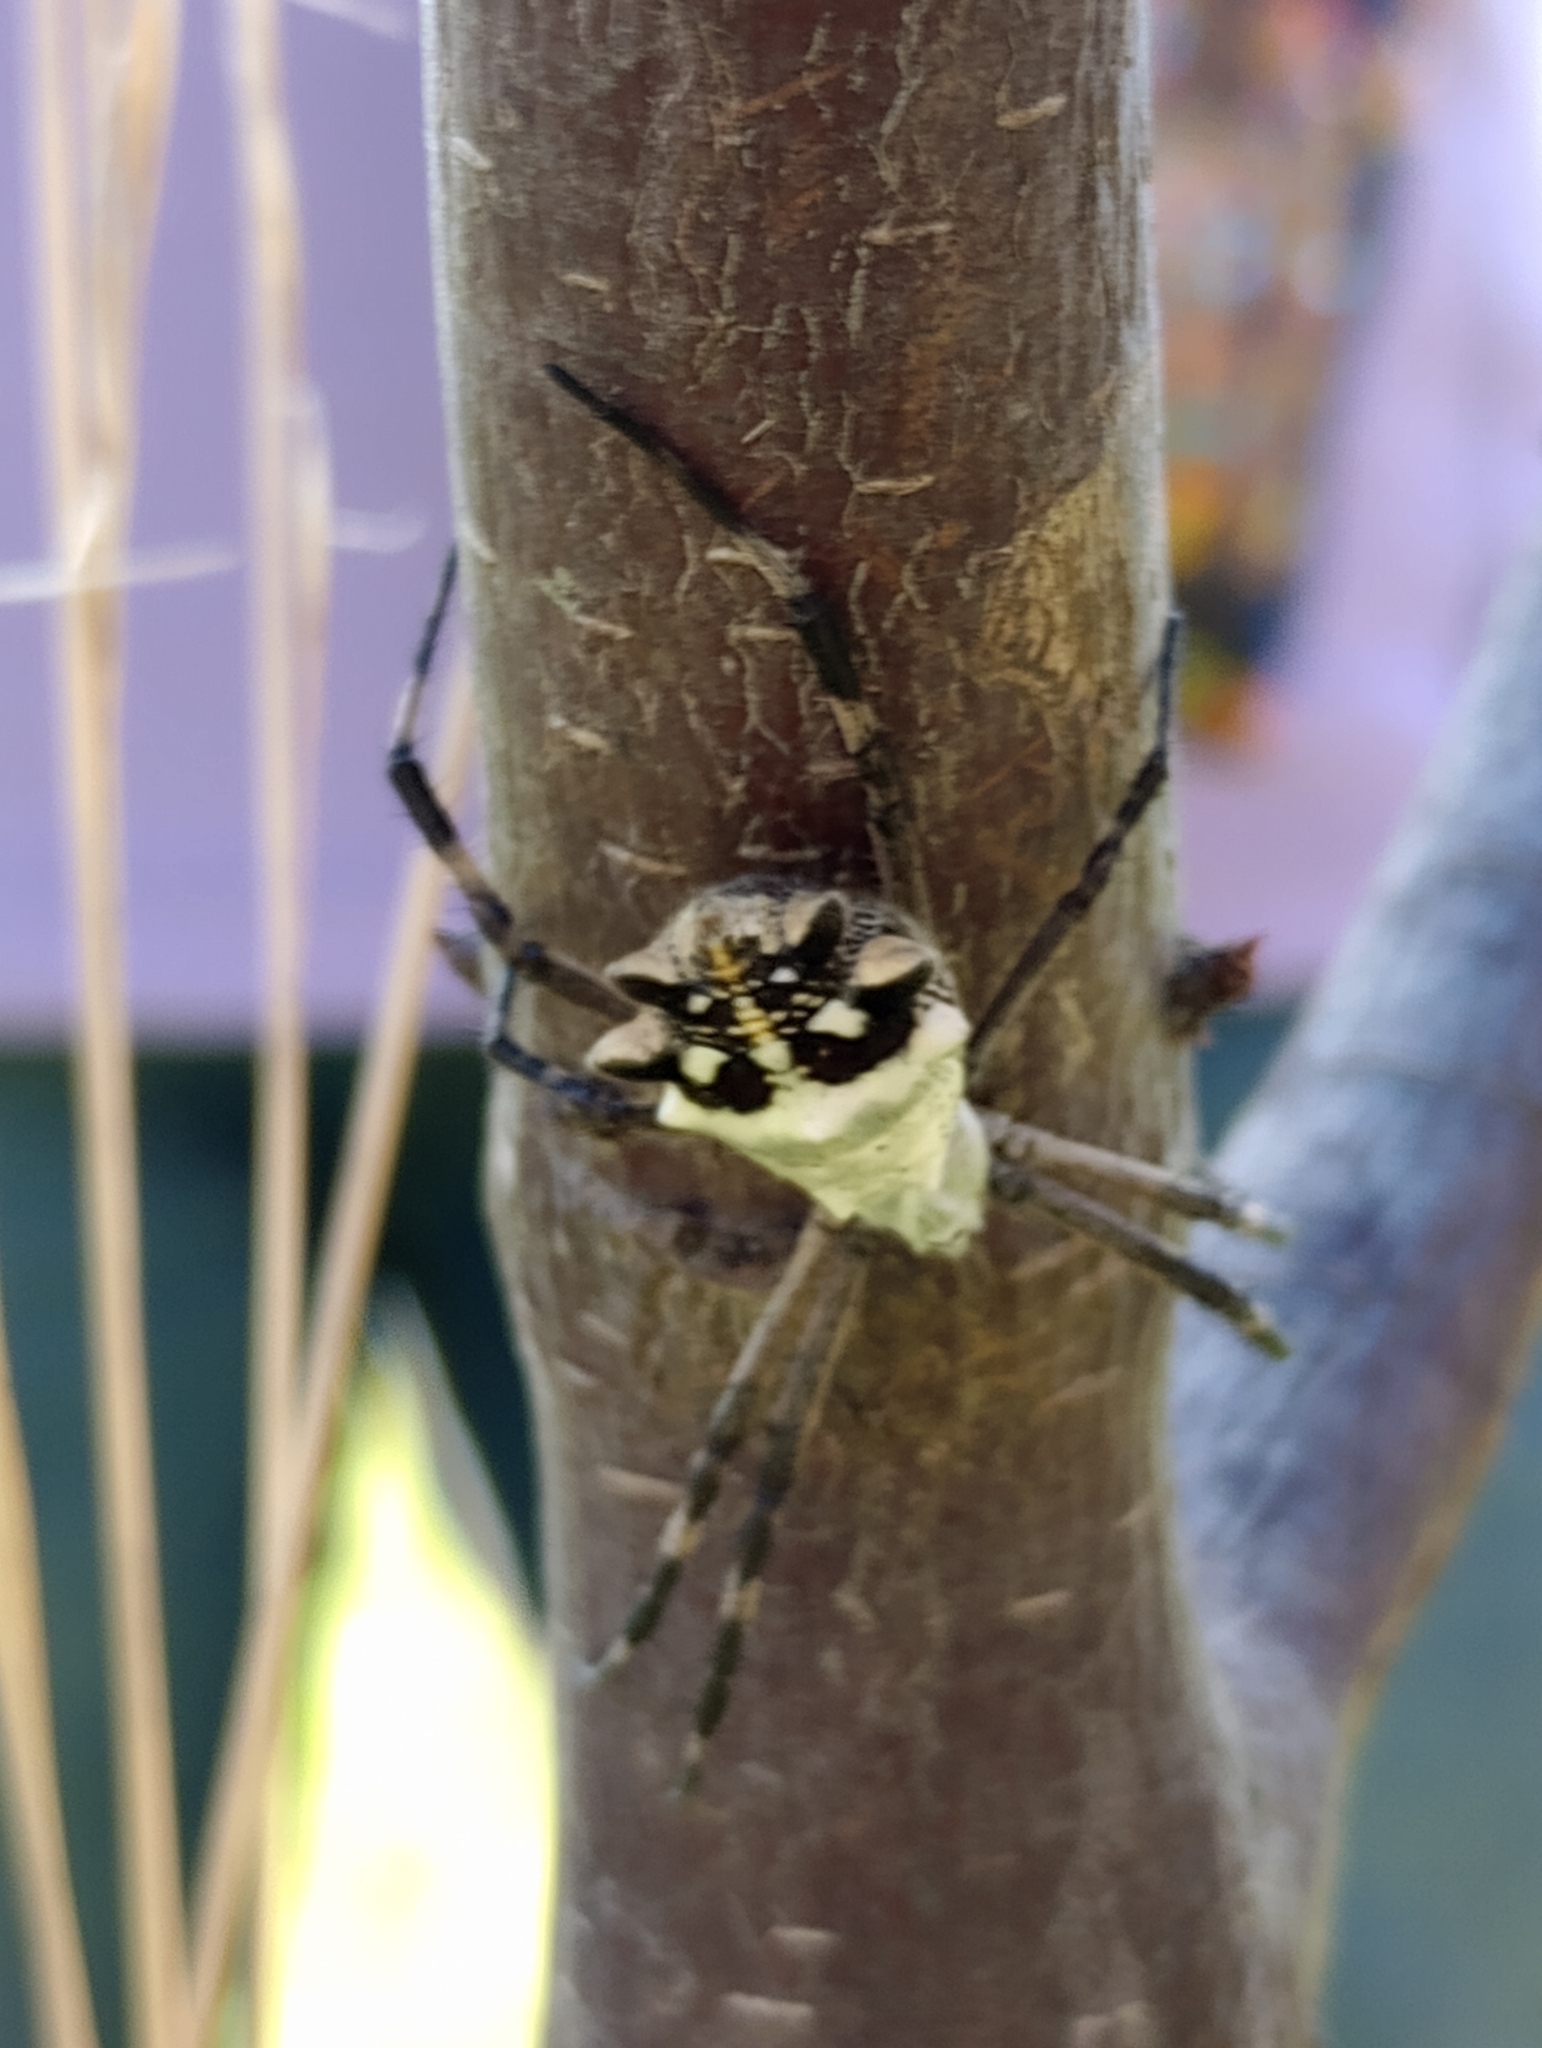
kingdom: Animalia
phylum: Arthropoda
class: Arachnida
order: Araneae
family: Araneidae
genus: Argiope
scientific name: Argiope argentata
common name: Orb weavers
